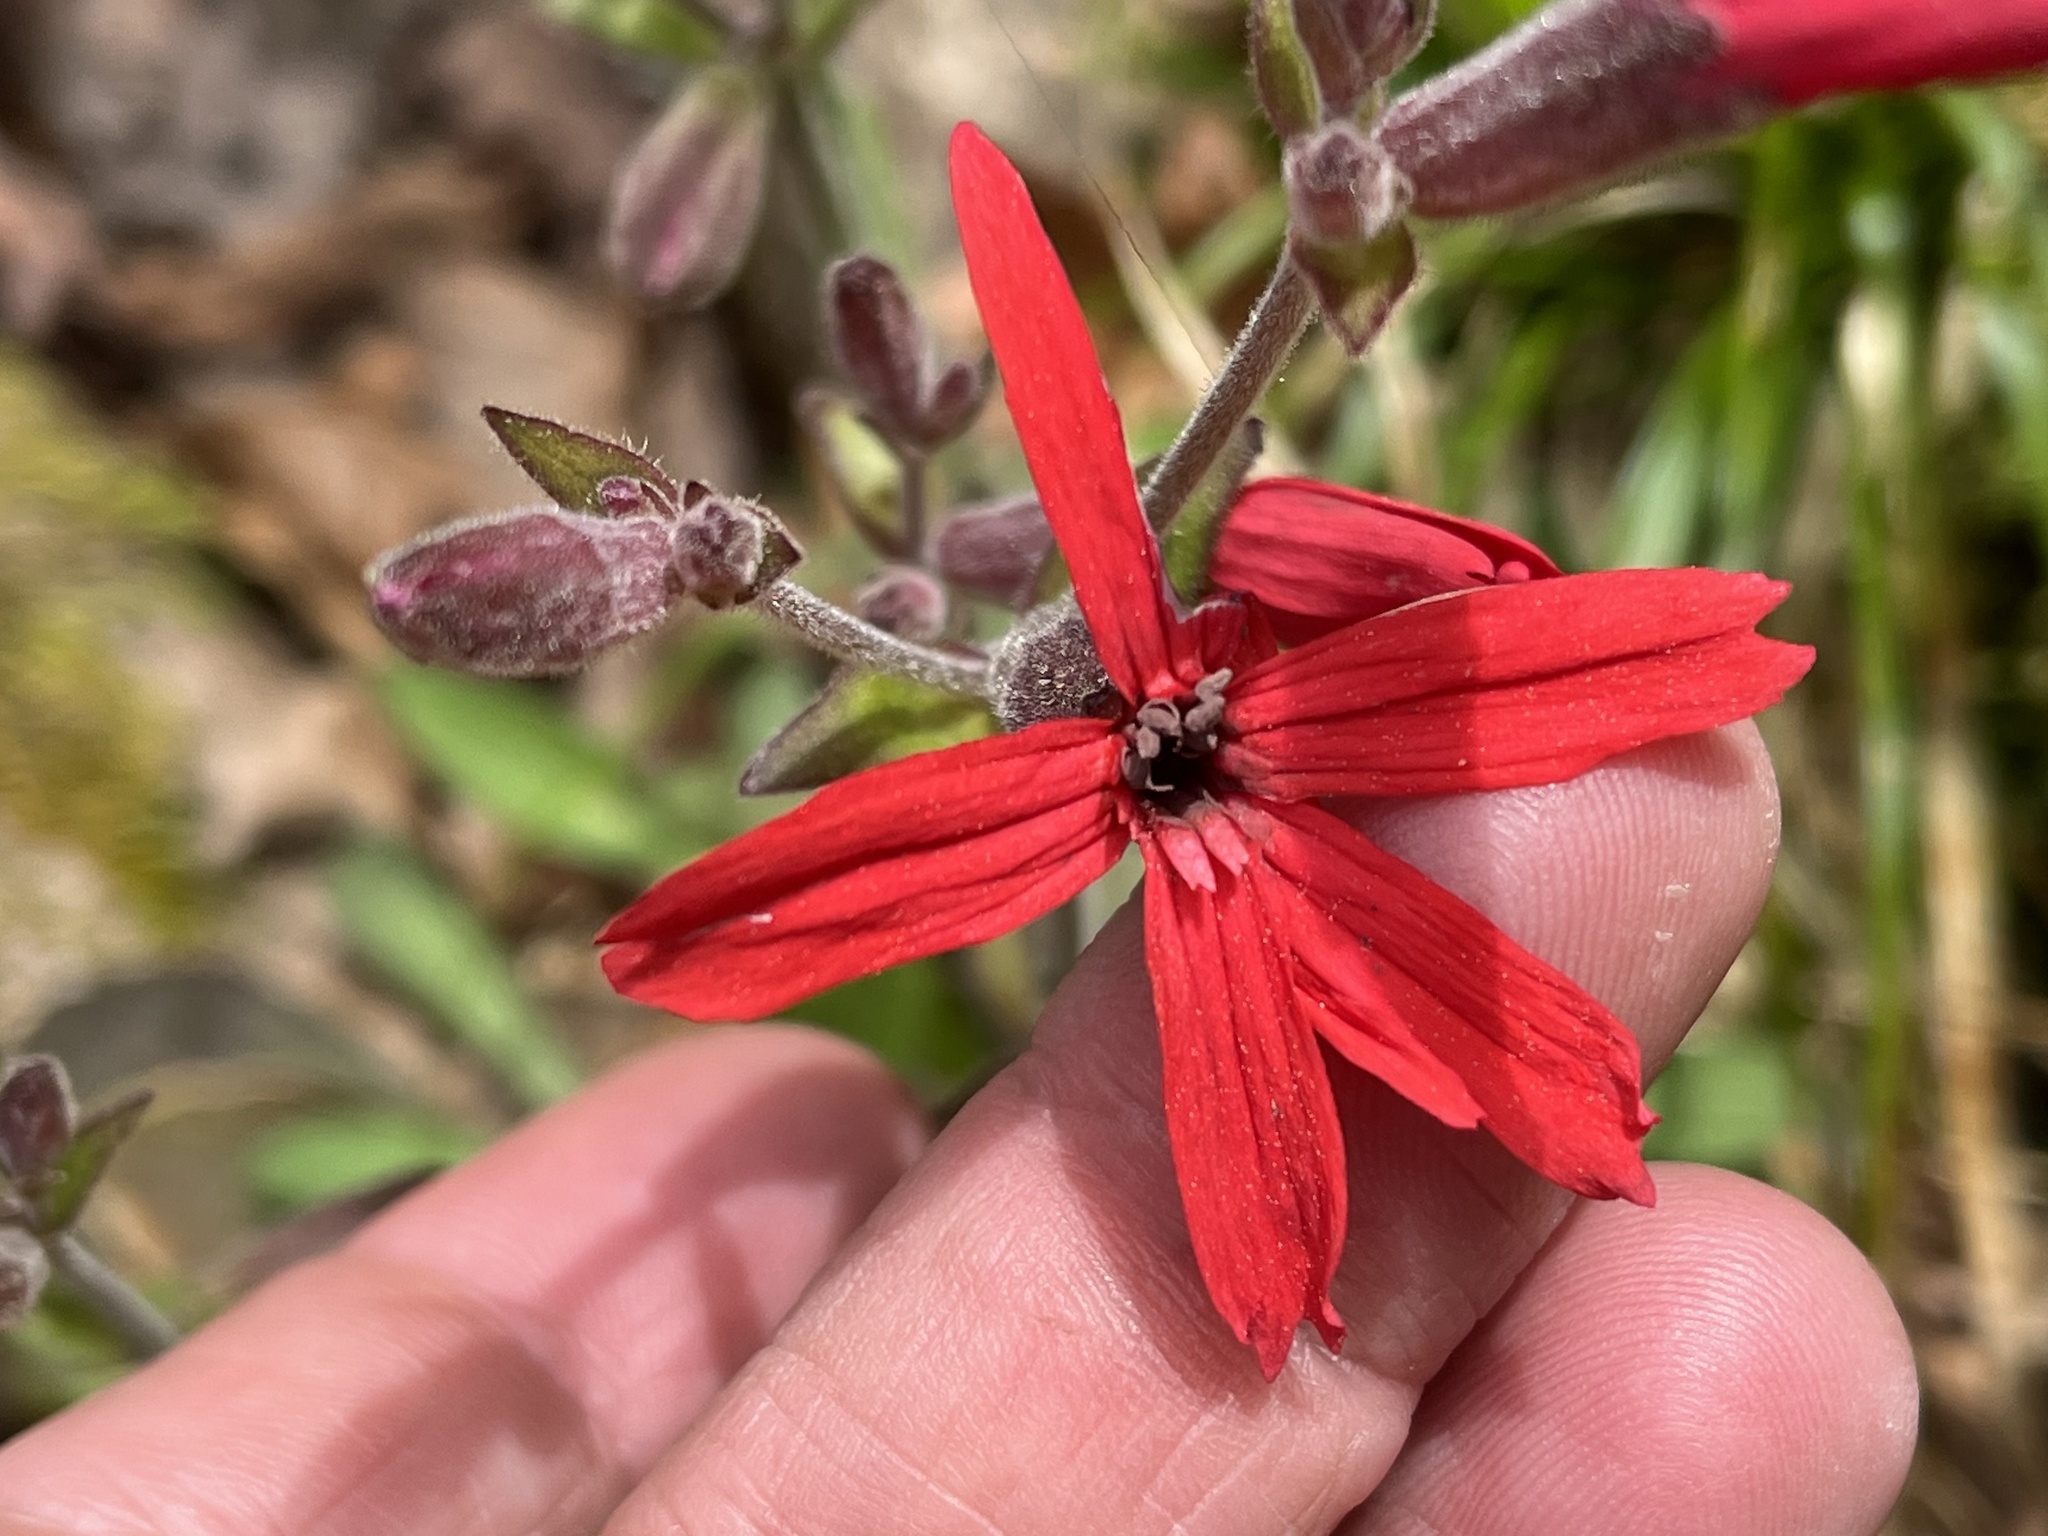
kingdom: Plantae
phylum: Tracheophyta
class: Magnoliopsida
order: Caryophyllales
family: Caryophyllaceae
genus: Silene
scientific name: Silene virginica
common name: Fire-pink
